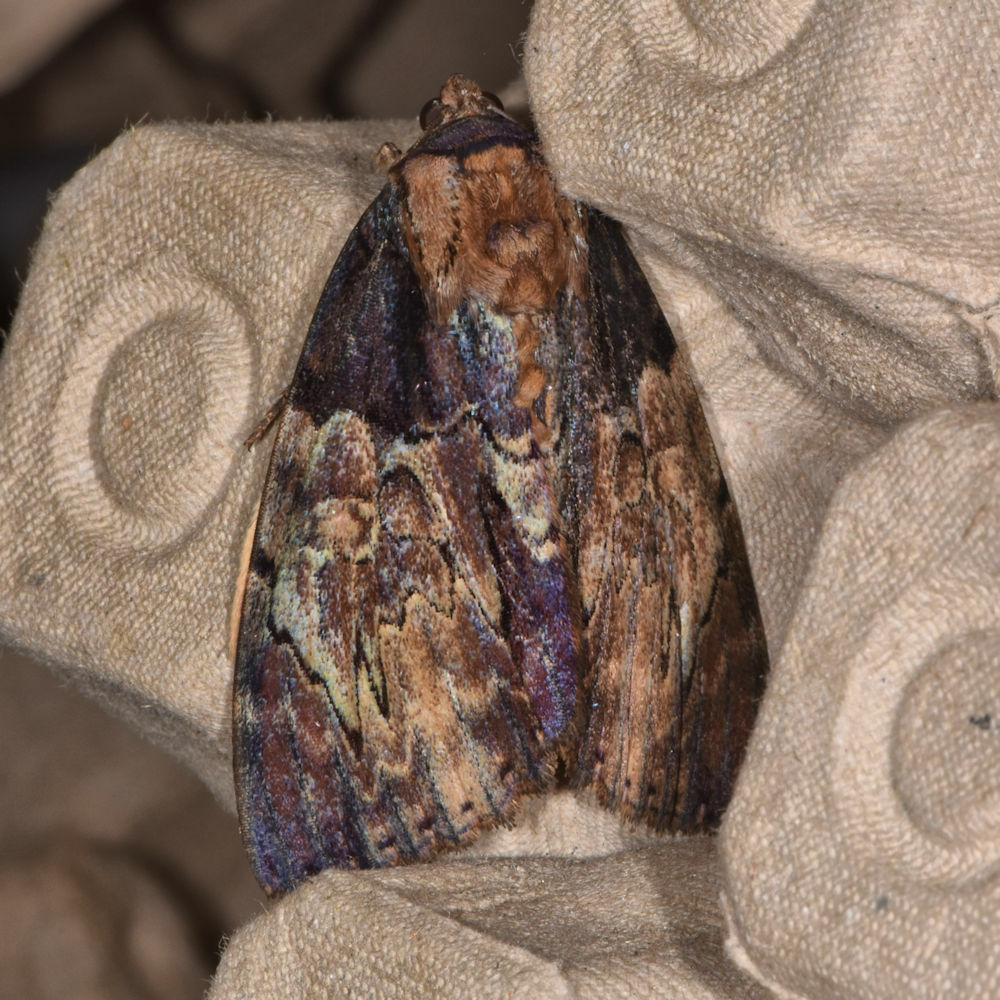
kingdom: Animalia
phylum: Arthropoda
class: Insecta
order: Lepidoptera
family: Erebidae
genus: Catocala
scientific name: Catocala nebulosa
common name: Clouded underwing
